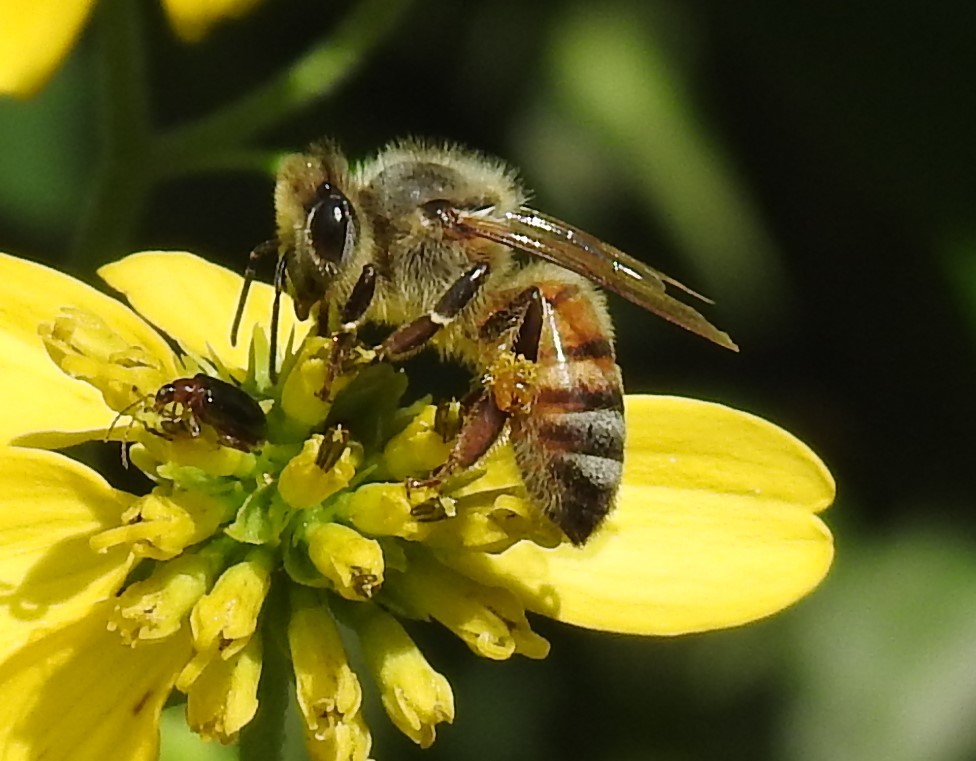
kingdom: Animalia
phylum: Arthropoda
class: Insecta
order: Hymenoptera
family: Apidae
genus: Apis
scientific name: Apis mellifera
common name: Honey bee
